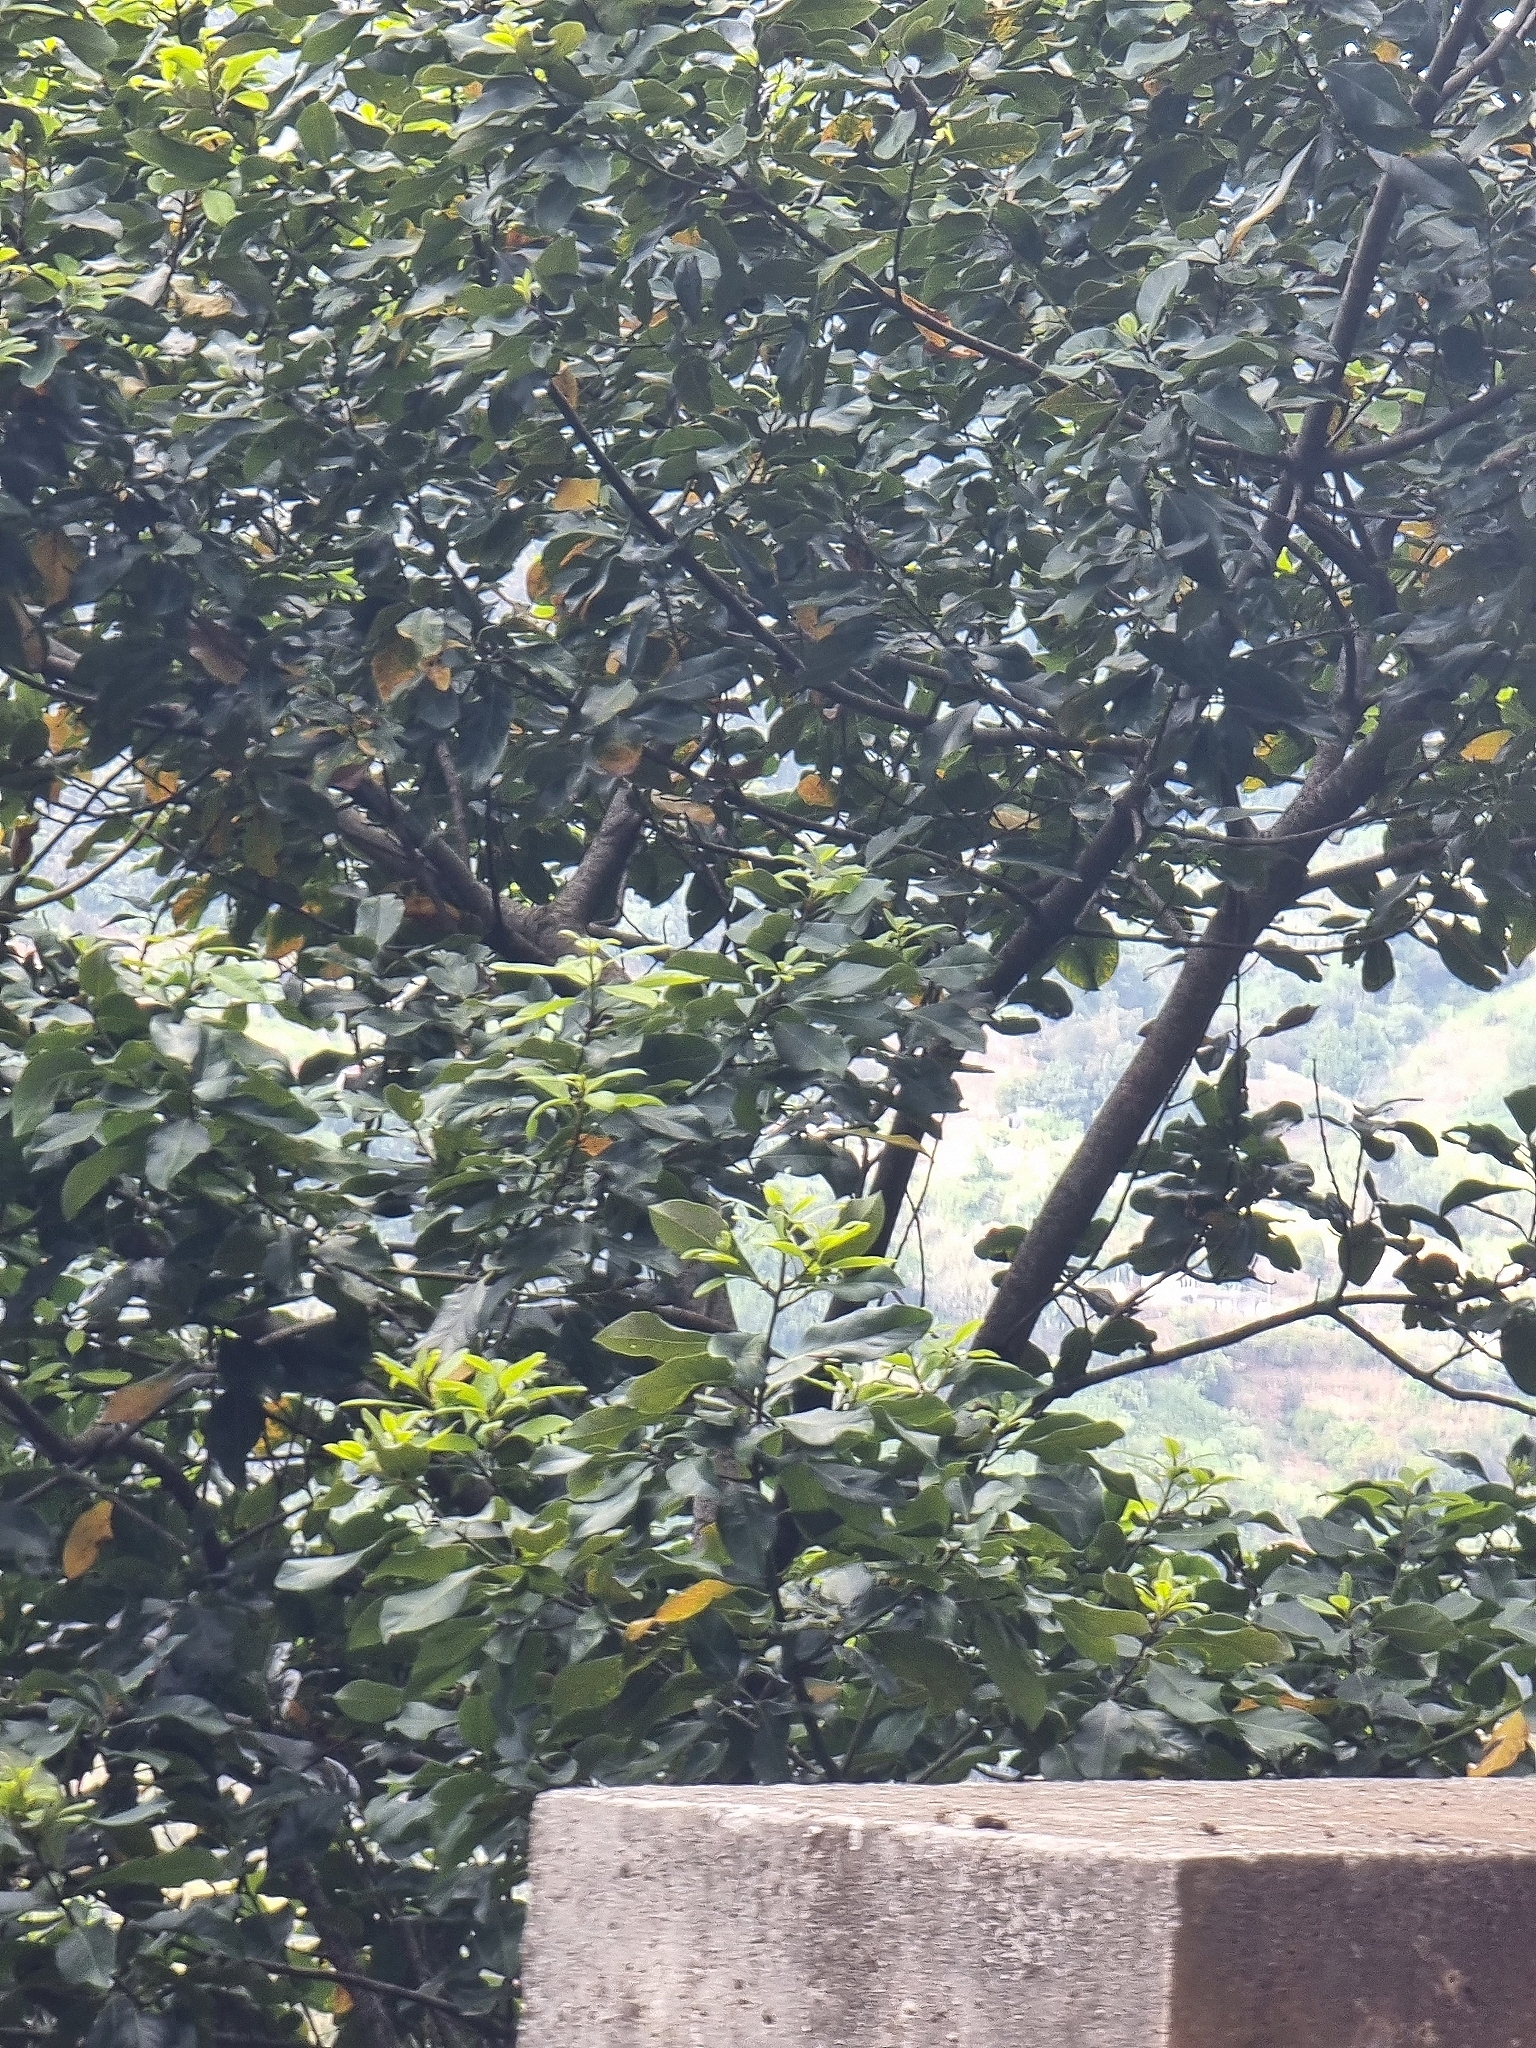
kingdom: Plantae
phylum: Tracheophyta
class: Magnoliopsida
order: Laurales
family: Lauraceae
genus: Laurus
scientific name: Laurus novocanariensis
